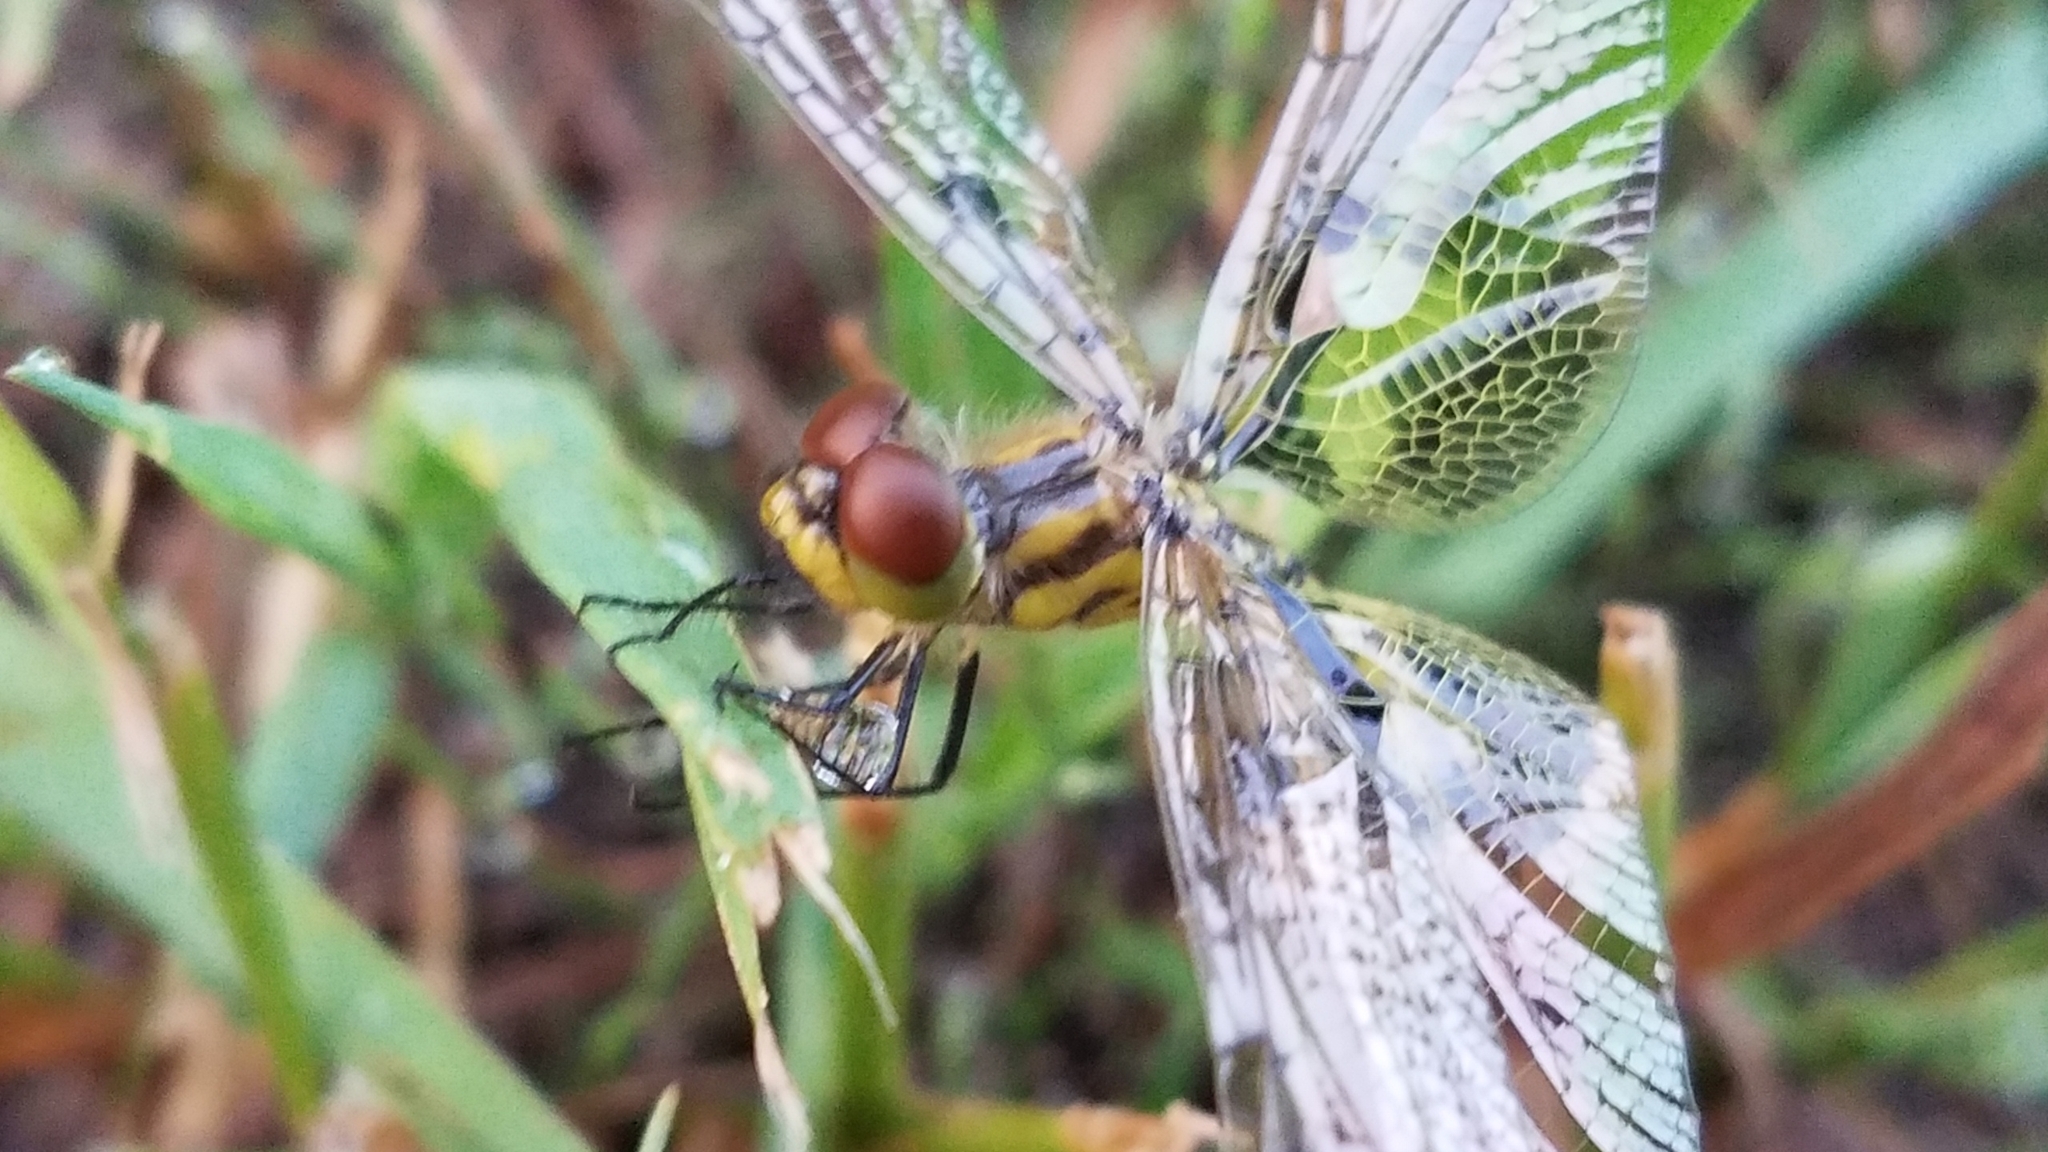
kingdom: Animalia
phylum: Arthropoda
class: Insecta
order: Odonata
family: Libellulidae
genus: Celithemis
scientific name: Celithemis elisa
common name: Calico pennant
